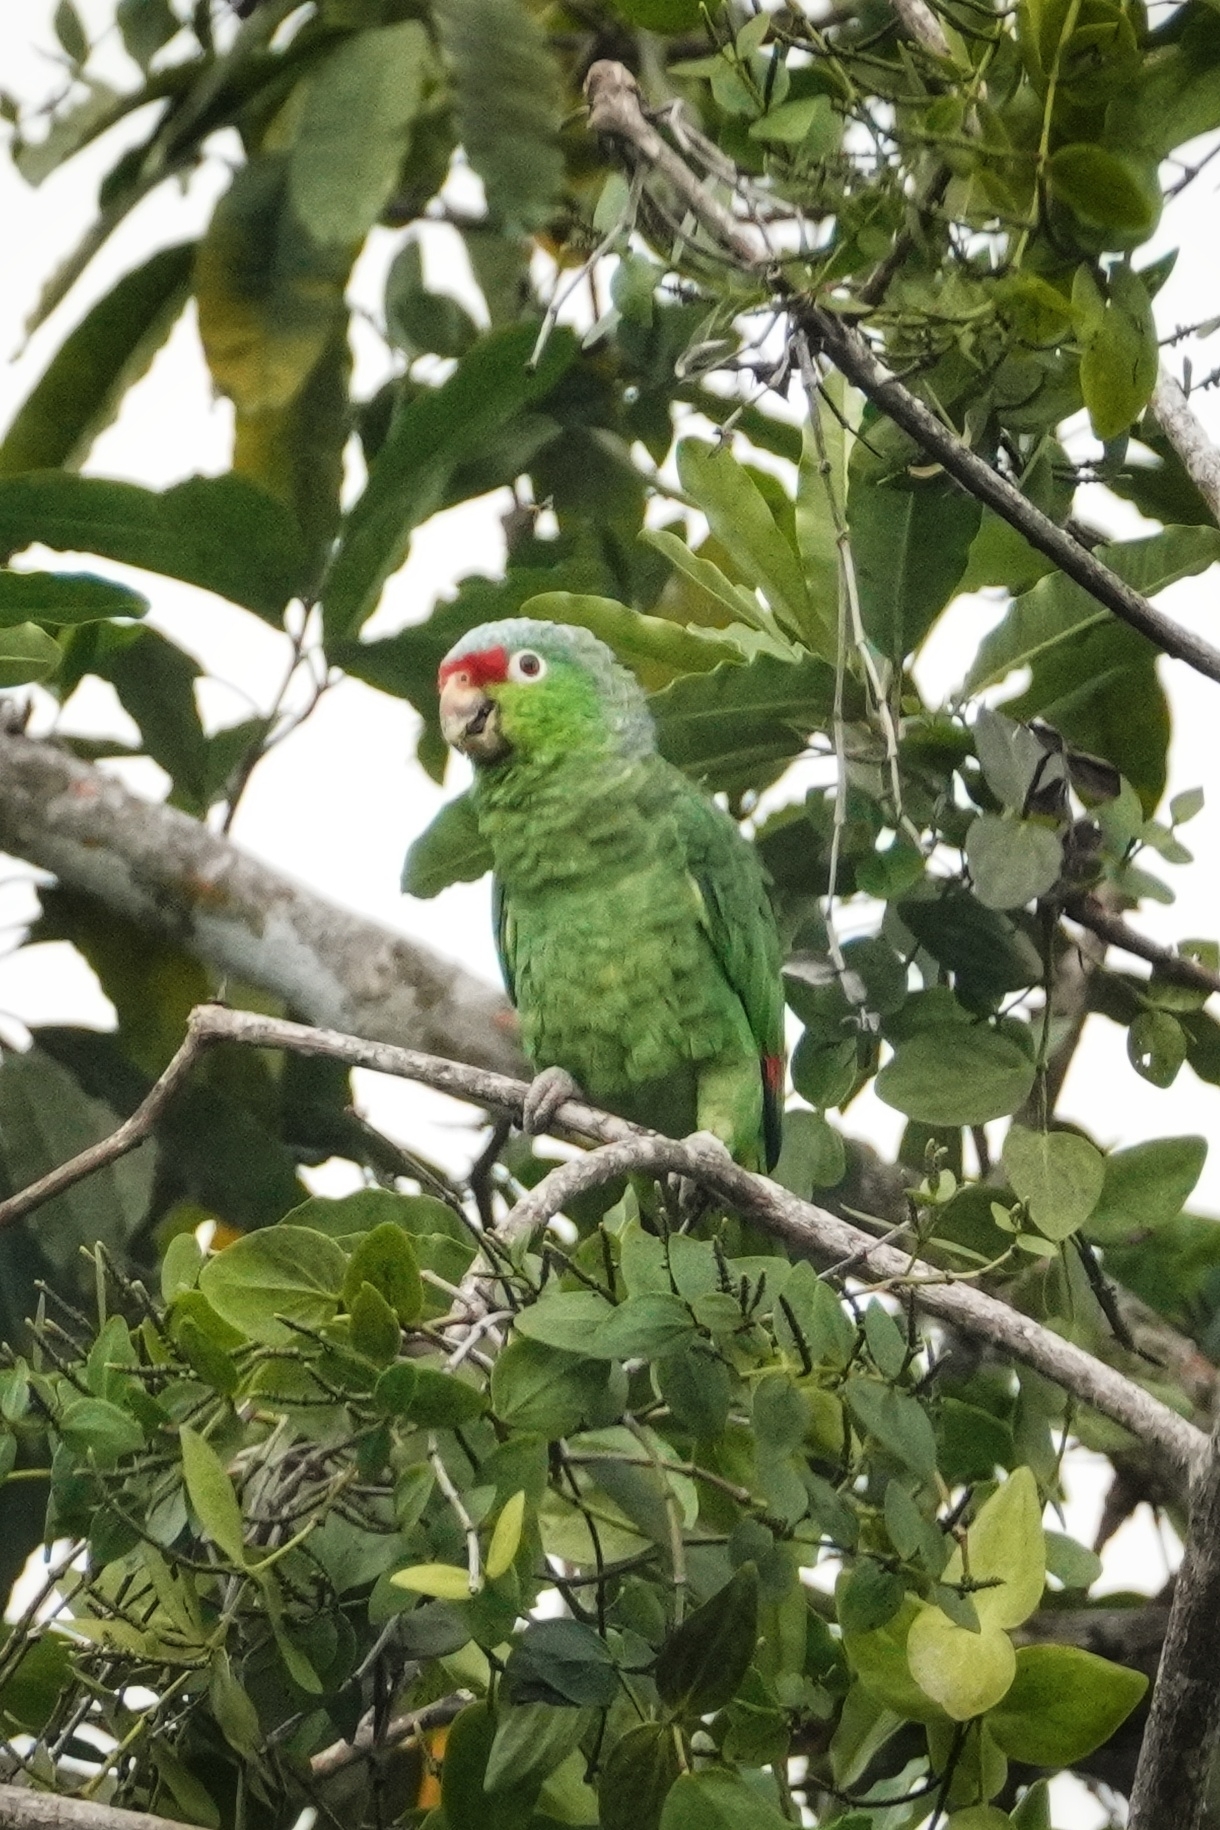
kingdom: Animalia
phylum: Chordata
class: Aves
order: Psittaciformes
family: Psittacidae
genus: Amazona
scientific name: Amazona autumnalis
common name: Red-lored amazon
